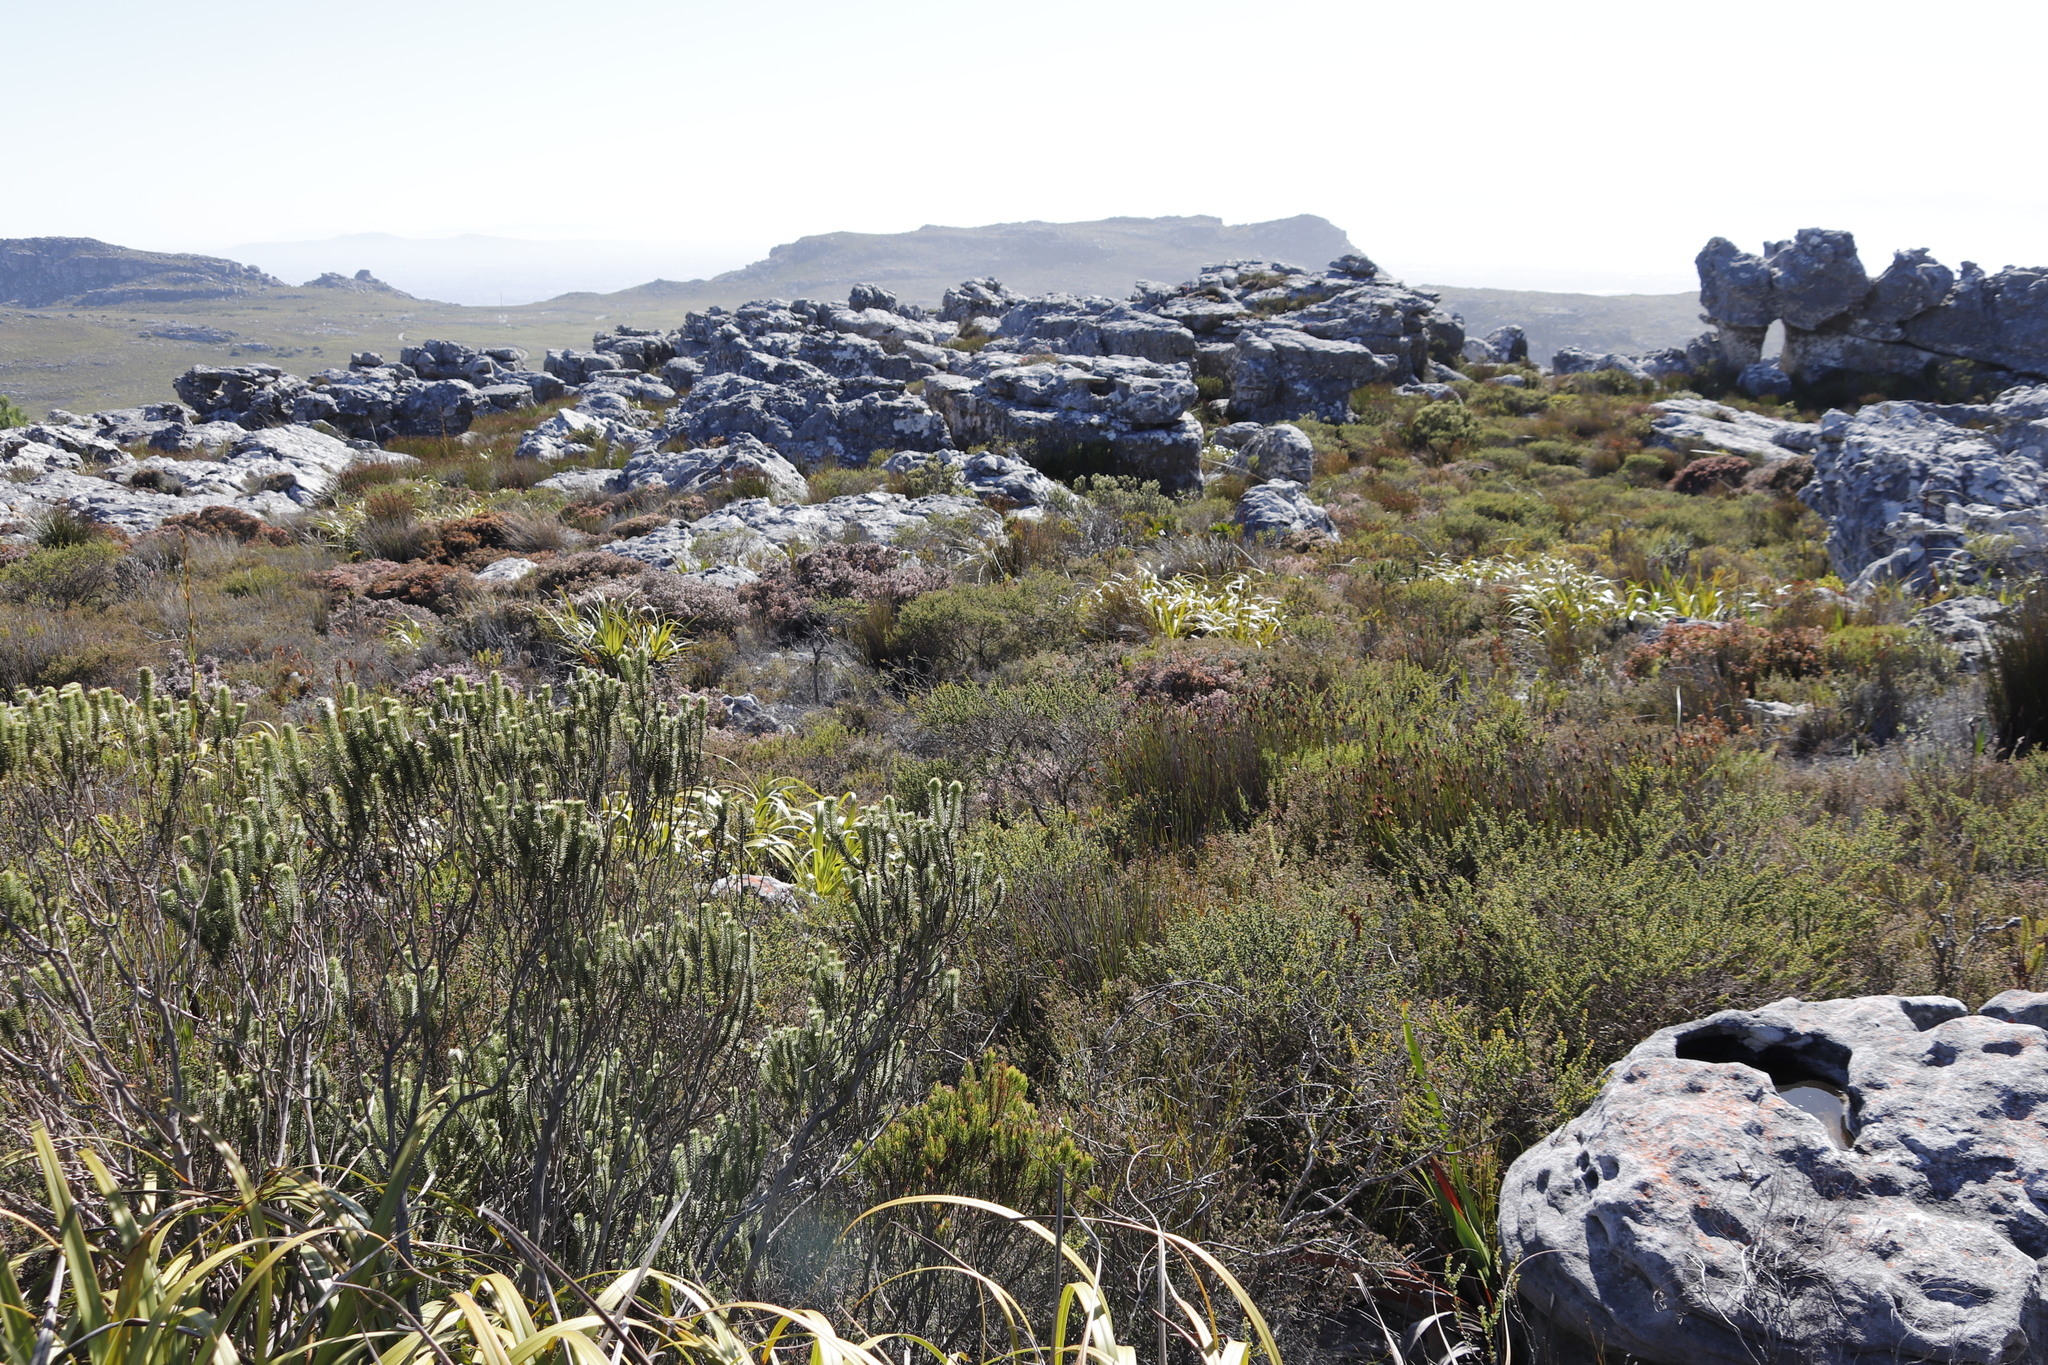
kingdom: Plantae
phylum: Tracheophyta
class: Magnoliopsida
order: Ericales
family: Ericaceae
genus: Erica
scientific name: Erica ericoides
